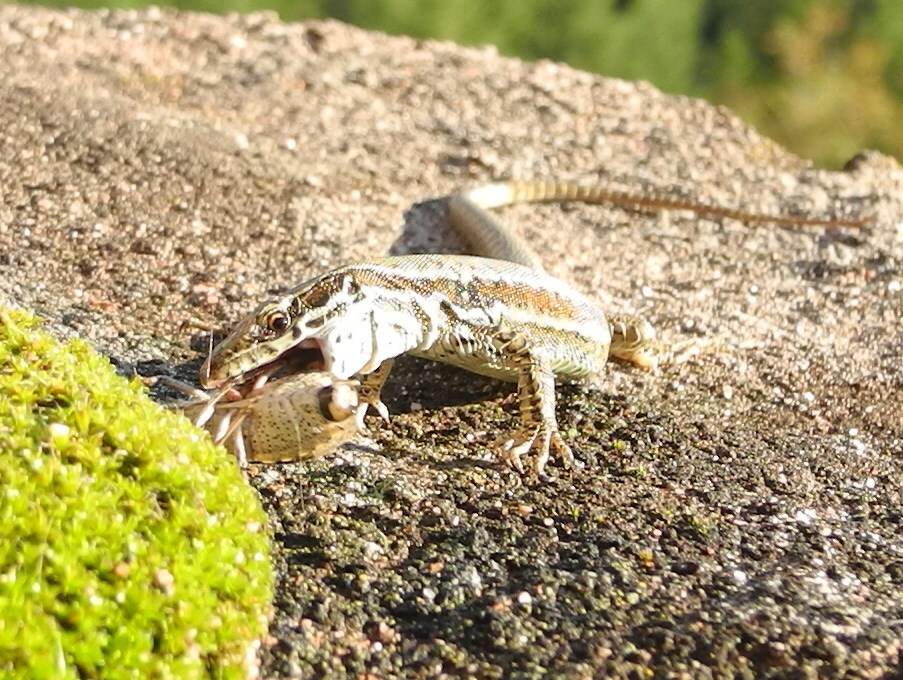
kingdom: Animalia
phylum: Chordata
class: Squamata
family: Lacertidae
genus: Podarcis
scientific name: Podarcis muralis
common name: Common wall lizard
